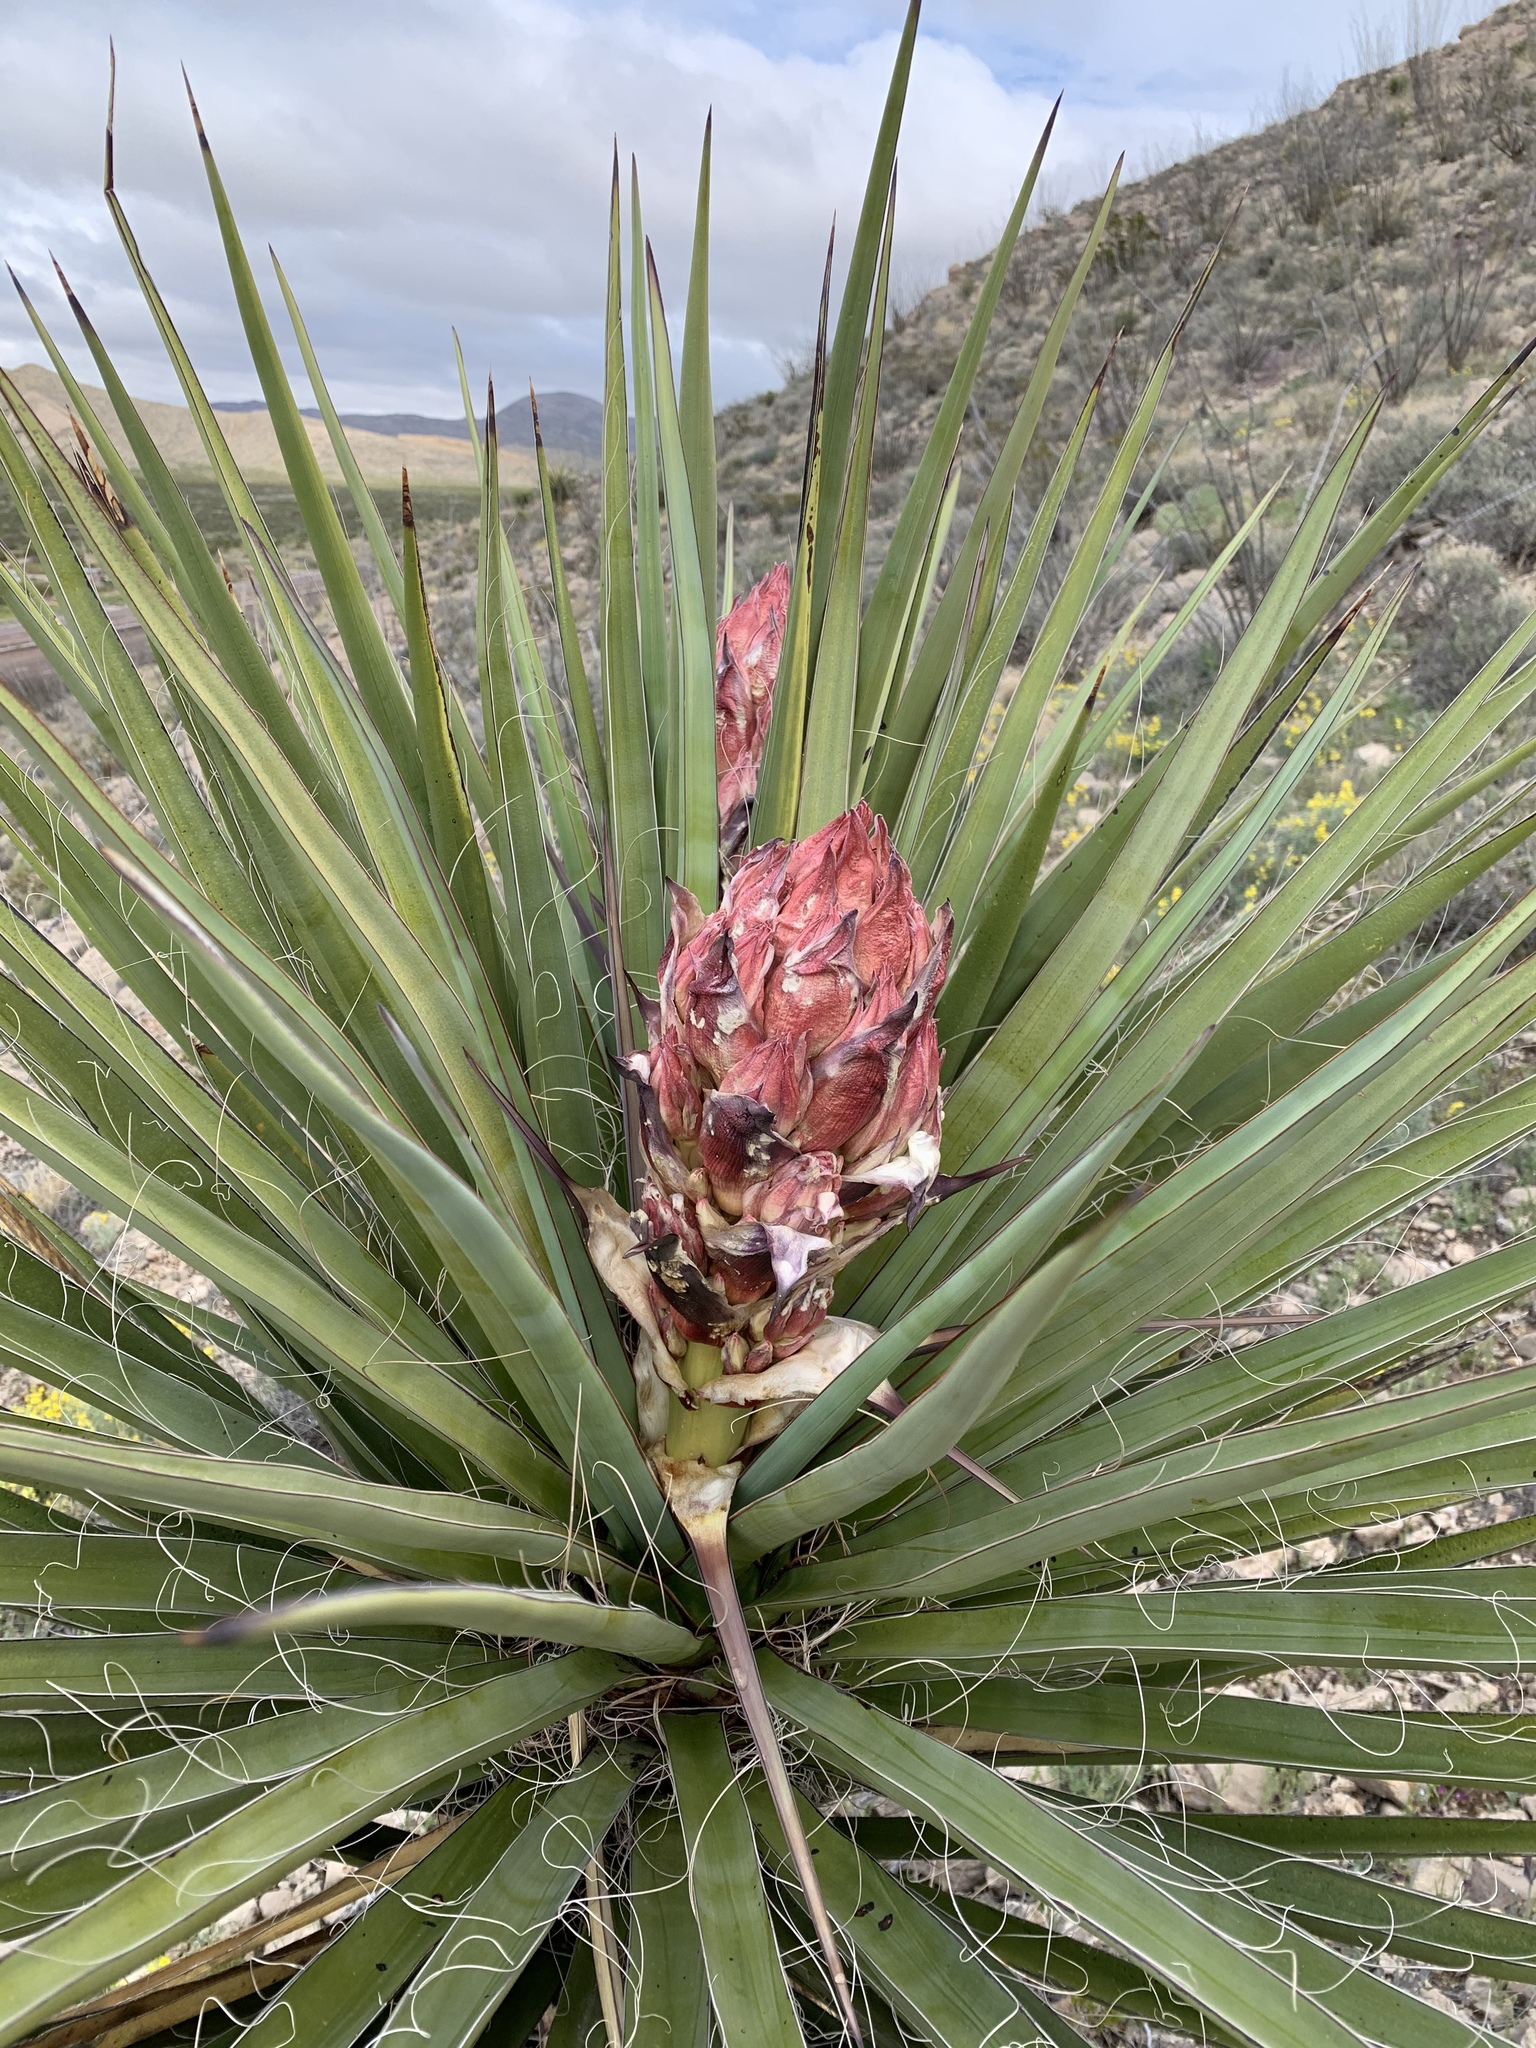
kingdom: Plantae
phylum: Tracheophyta
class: Liliopsida
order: Asparagales
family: Asparagaceae
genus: Yucca
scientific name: Yucca treculiana
